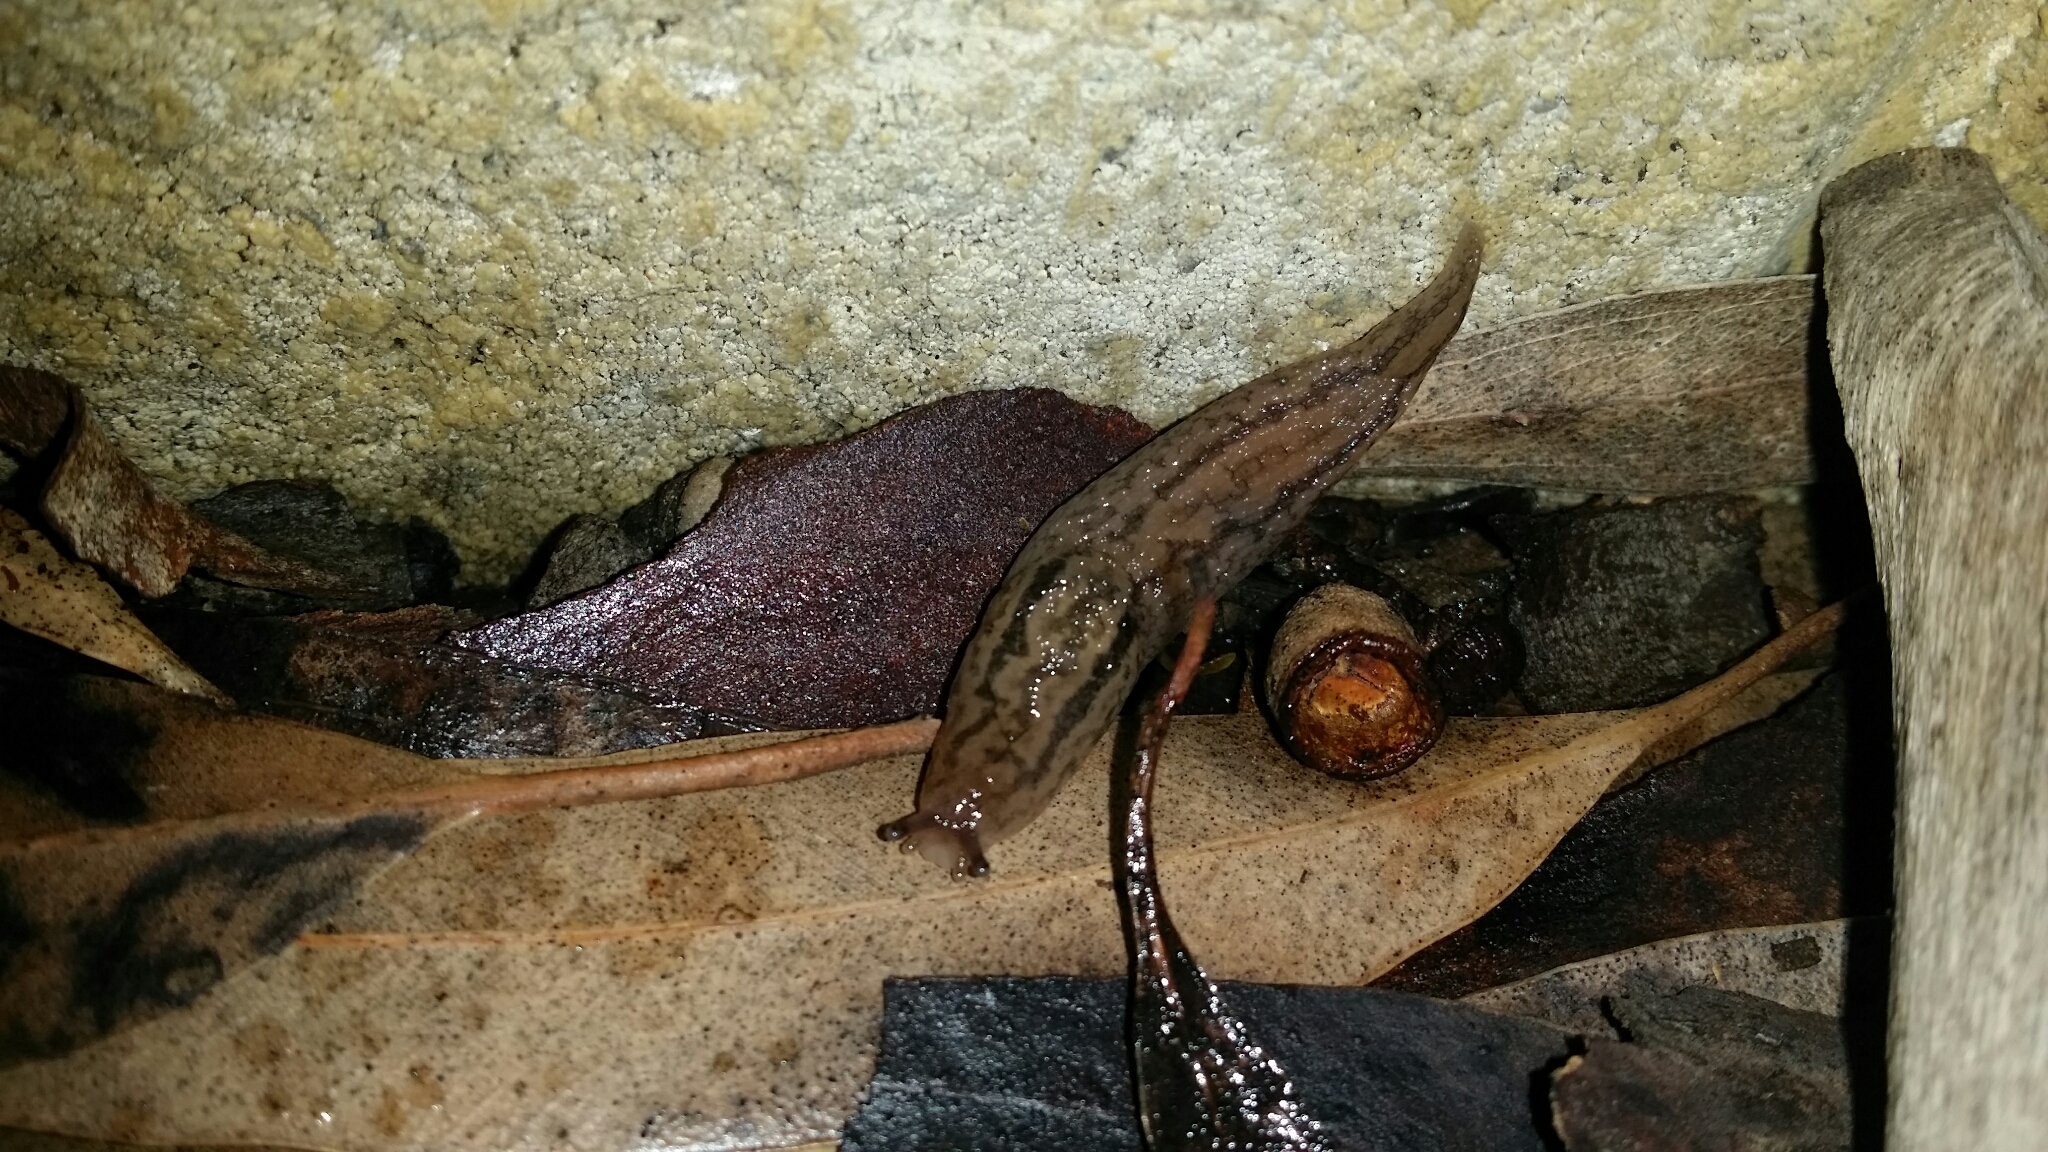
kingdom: Animalia
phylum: Mollusca
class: Gastropoda
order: Stylommatophora
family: Limacidae
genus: Ambigolimax
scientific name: Ambigolimax
